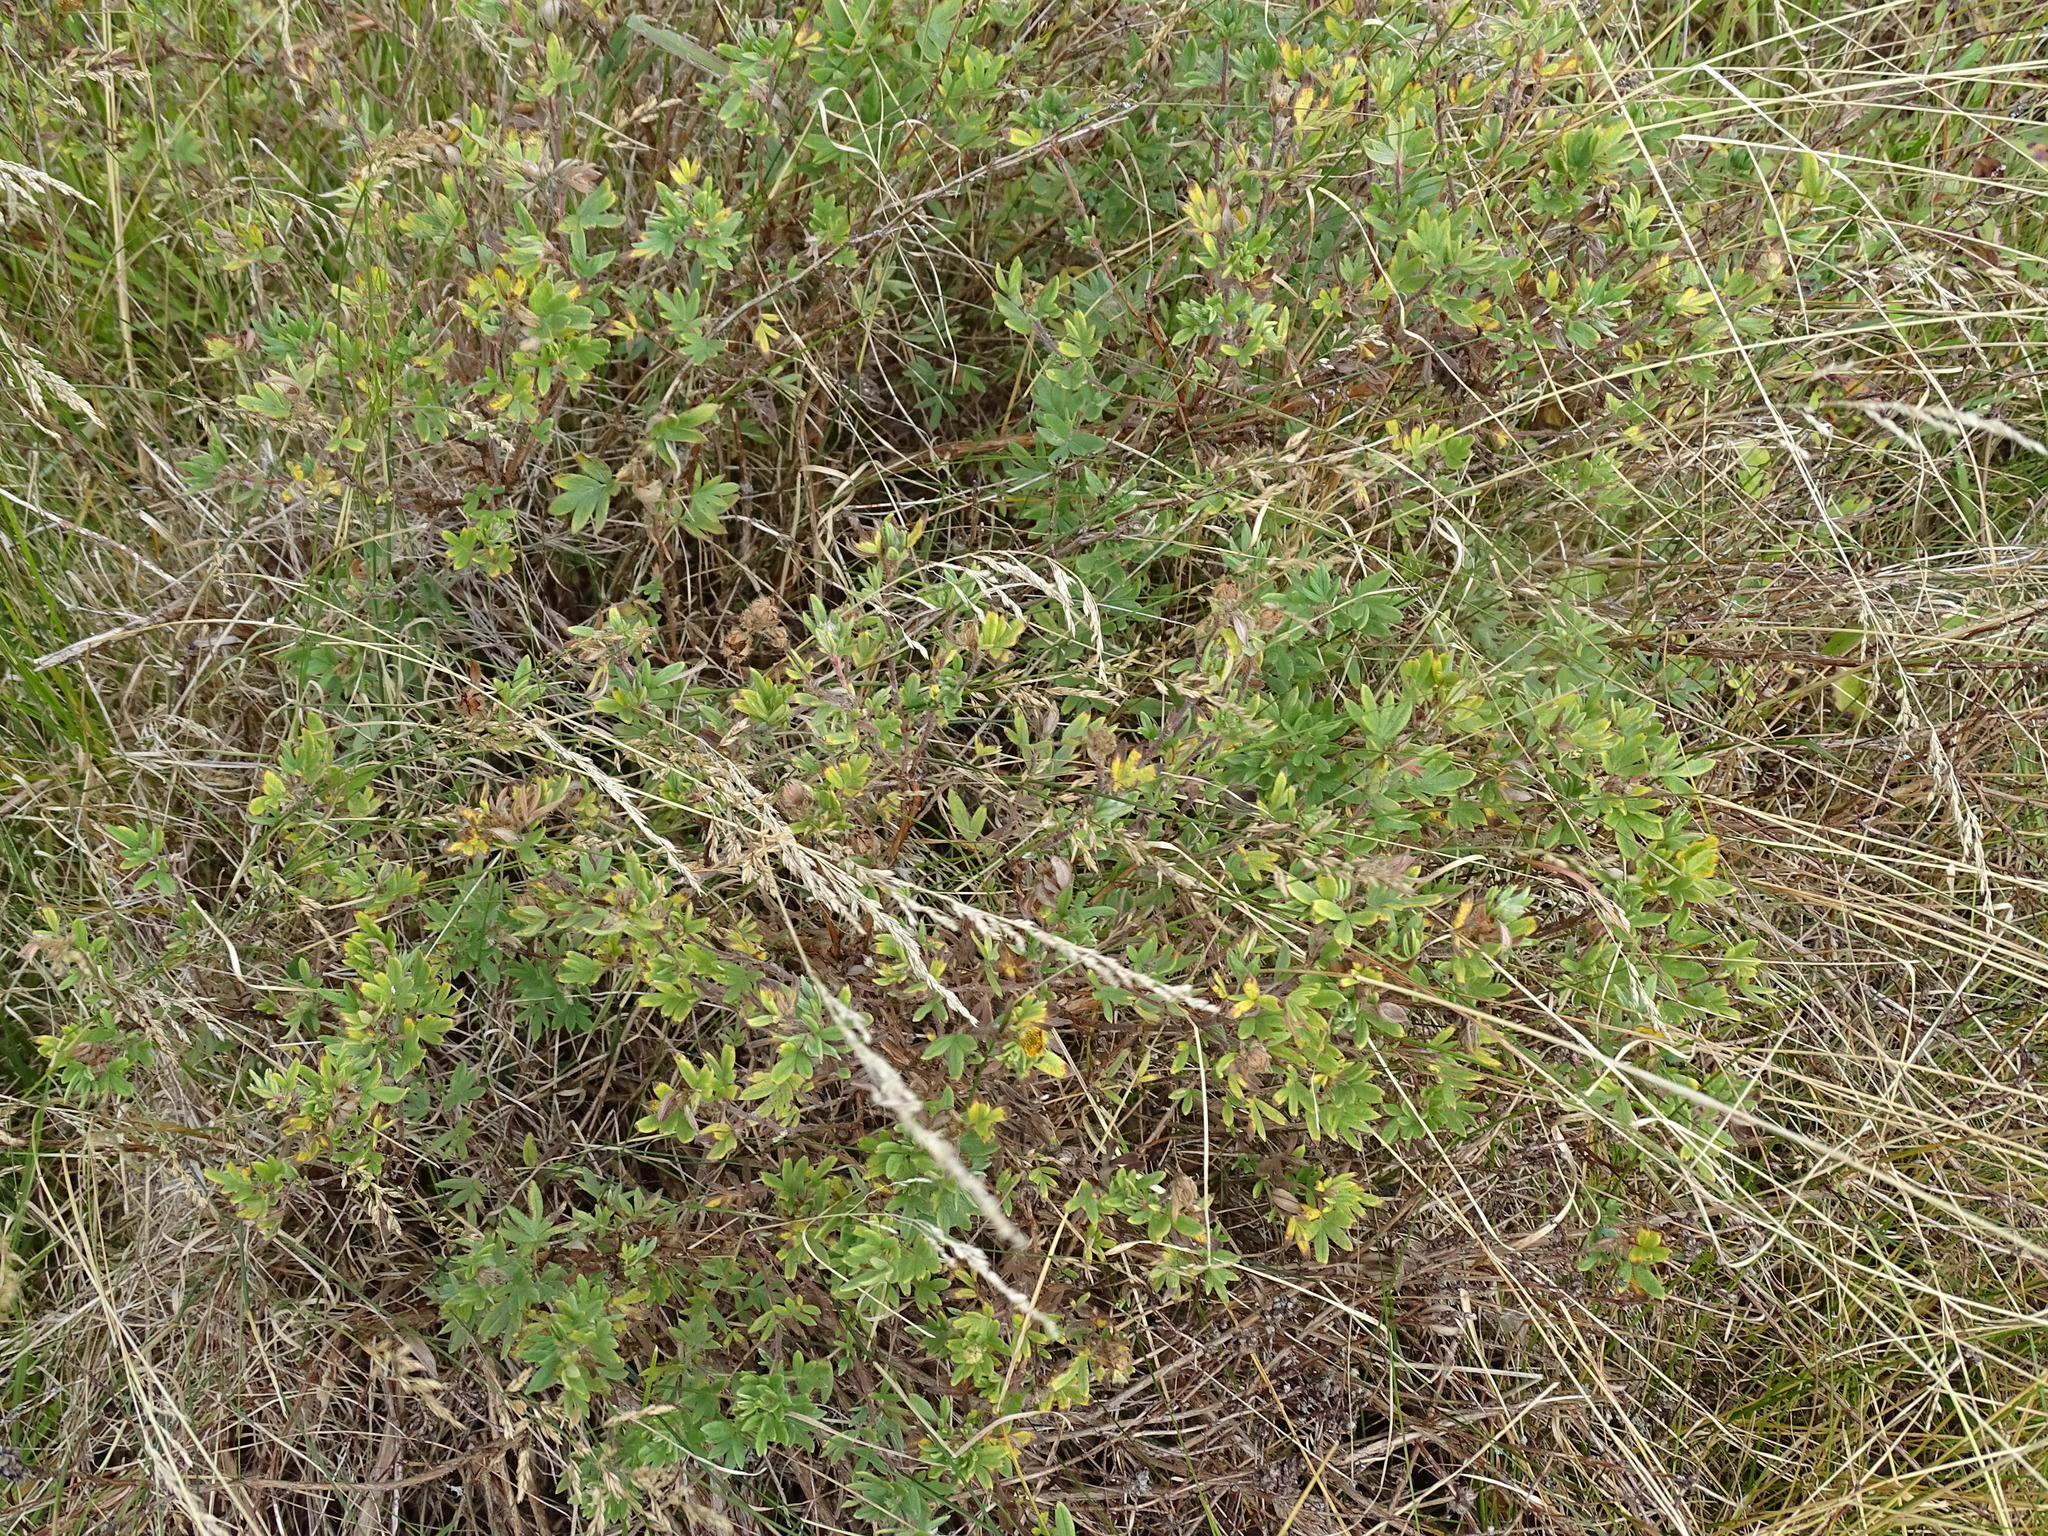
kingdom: Plantae
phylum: Tracheophyta
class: Magnoliopsida
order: Rosales
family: Rosaceae
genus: Dasiphora
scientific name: Dasiphora fruticosa
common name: Shrubby cinquefoil
